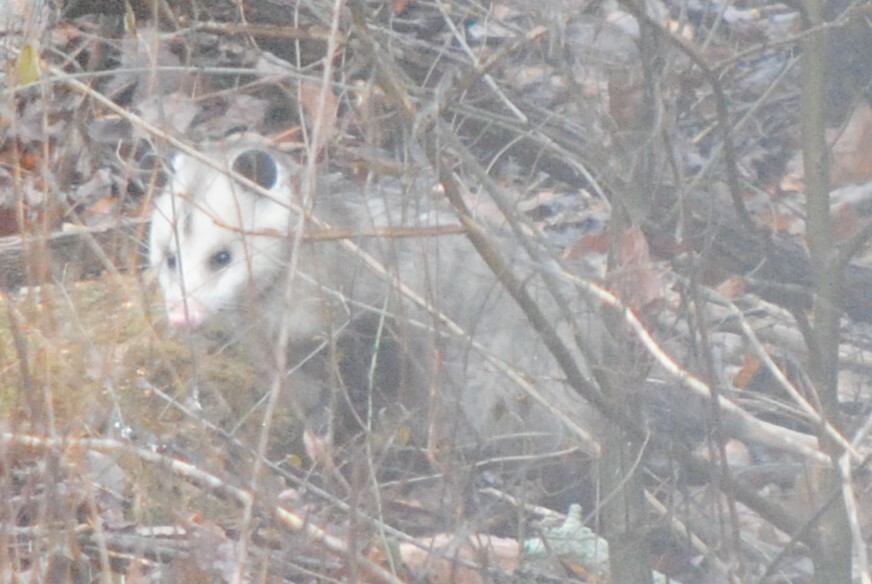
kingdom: Animalia
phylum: Chordata
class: Mammalia
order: Didelphimorphia
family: Didelphidae
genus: Didelphis
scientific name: Didelphis virginiana
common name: Virginia opossum
